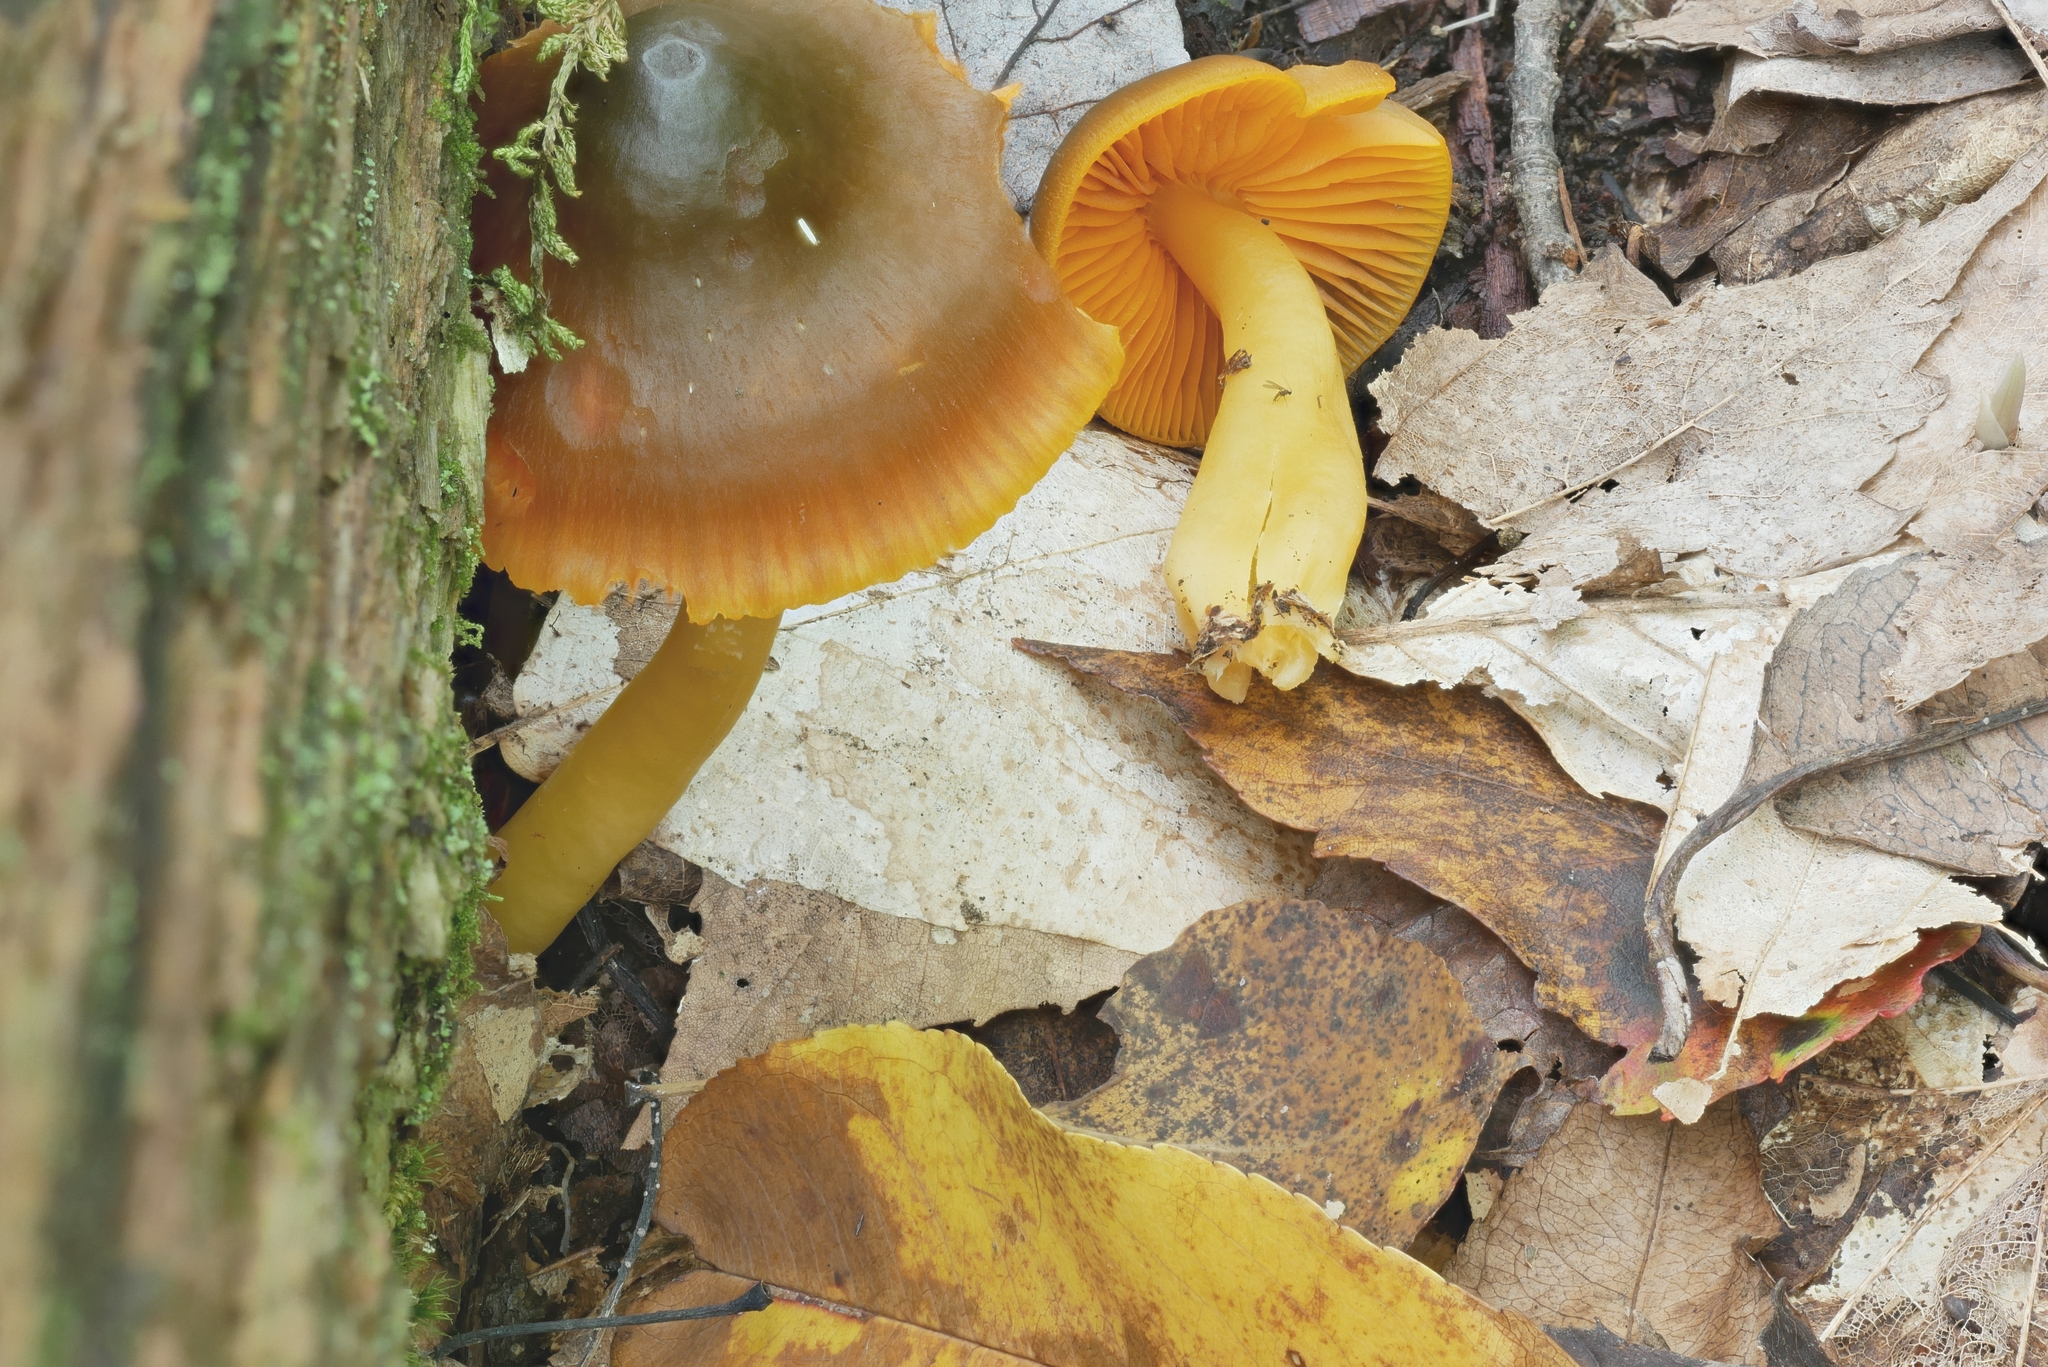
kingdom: Fungi
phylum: Basidiomycota
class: Agaricomycetes
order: Agaricales
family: Hygrophoraceae
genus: Humidicutis
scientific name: Humidicutis marginata
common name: Orange gilled waxcap
